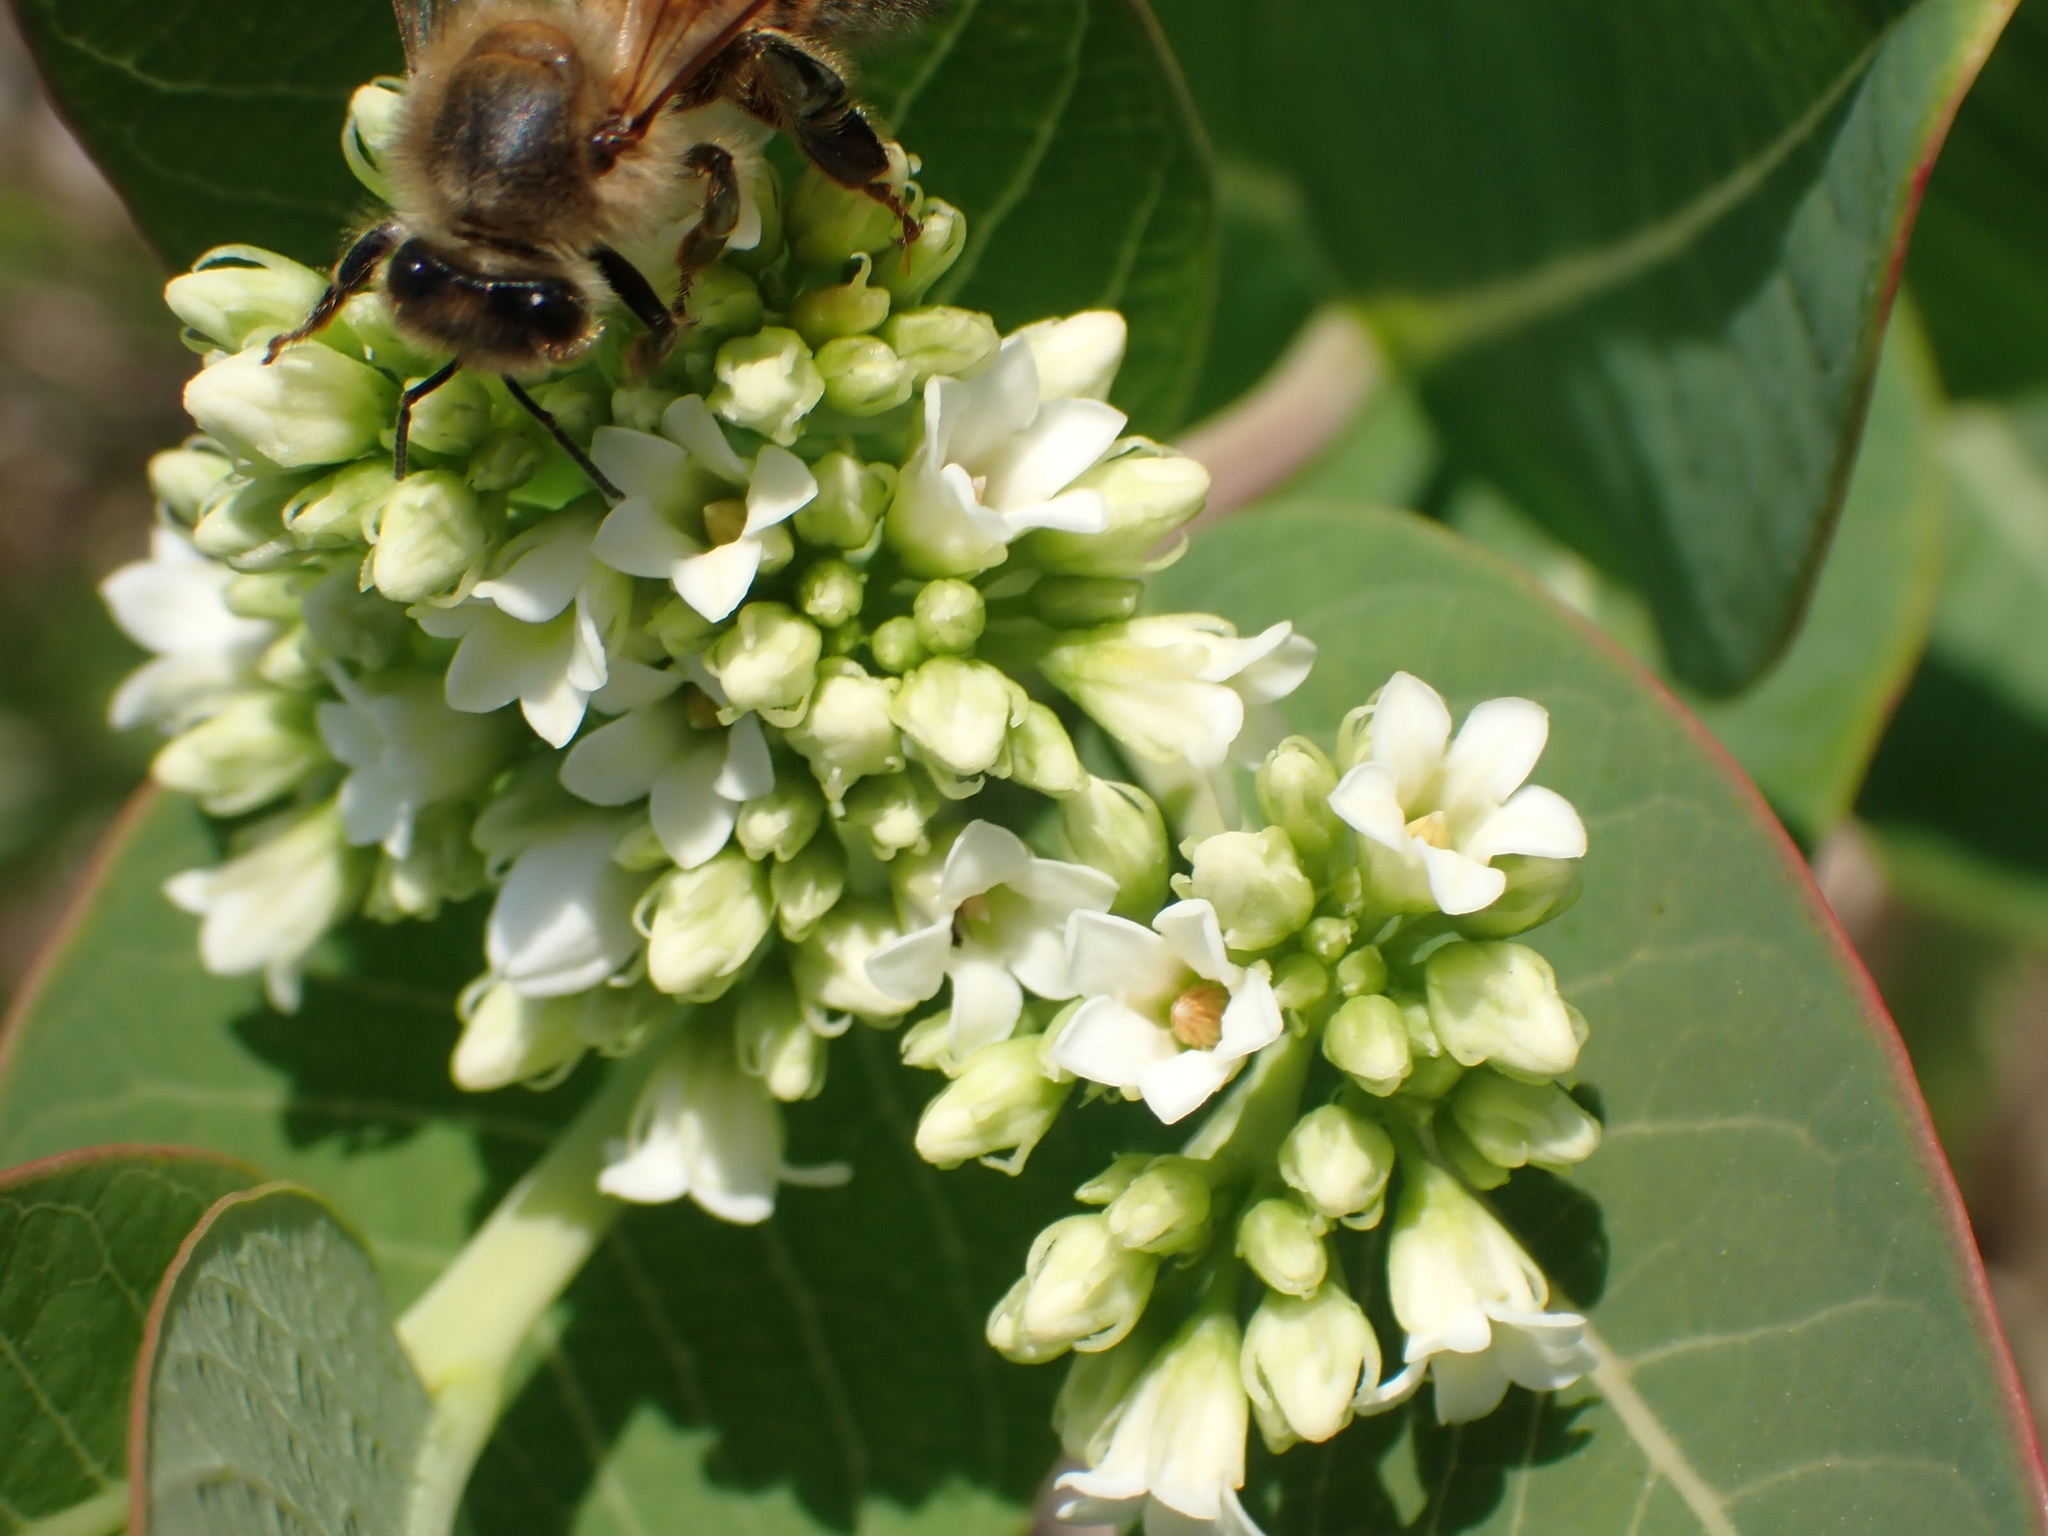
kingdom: Plantae
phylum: Tracheophyta
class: Magnoliopsida
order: Gentianales
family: Apocynaceae
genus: Apocynum
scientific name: Apocynum cannabinum
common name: Hemp dogbane
